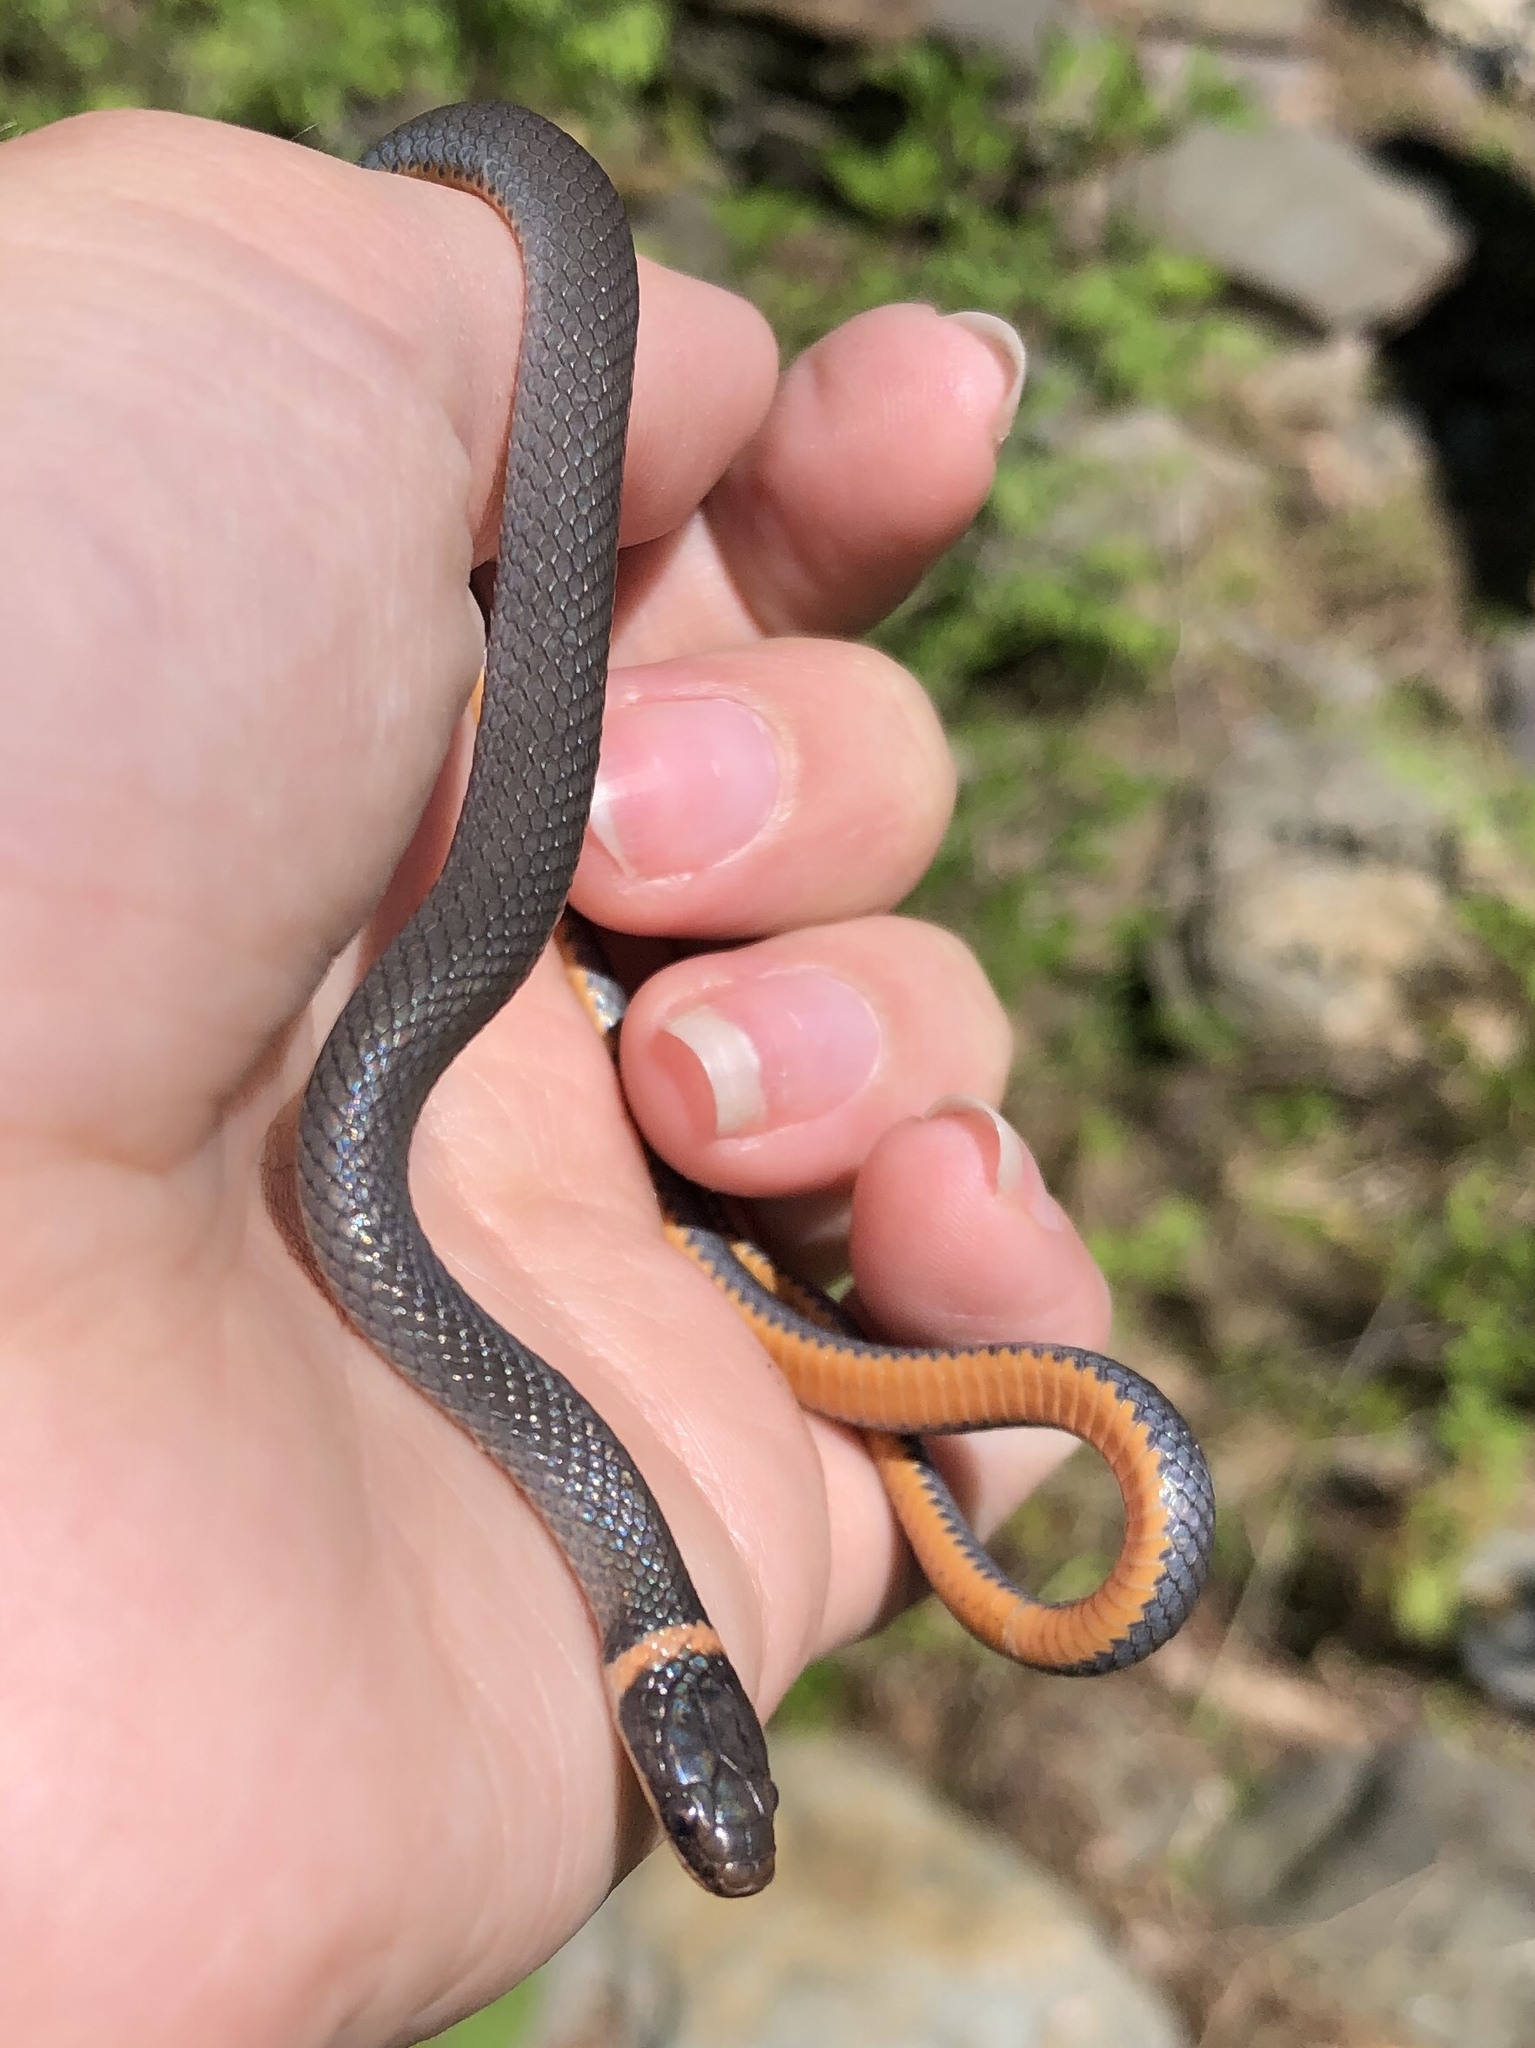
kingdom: Animalia
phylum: Chordata
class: Squamata
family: Colubridae
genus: Diadophis
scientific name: Diadophis punctatus
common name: Ringneck snake
